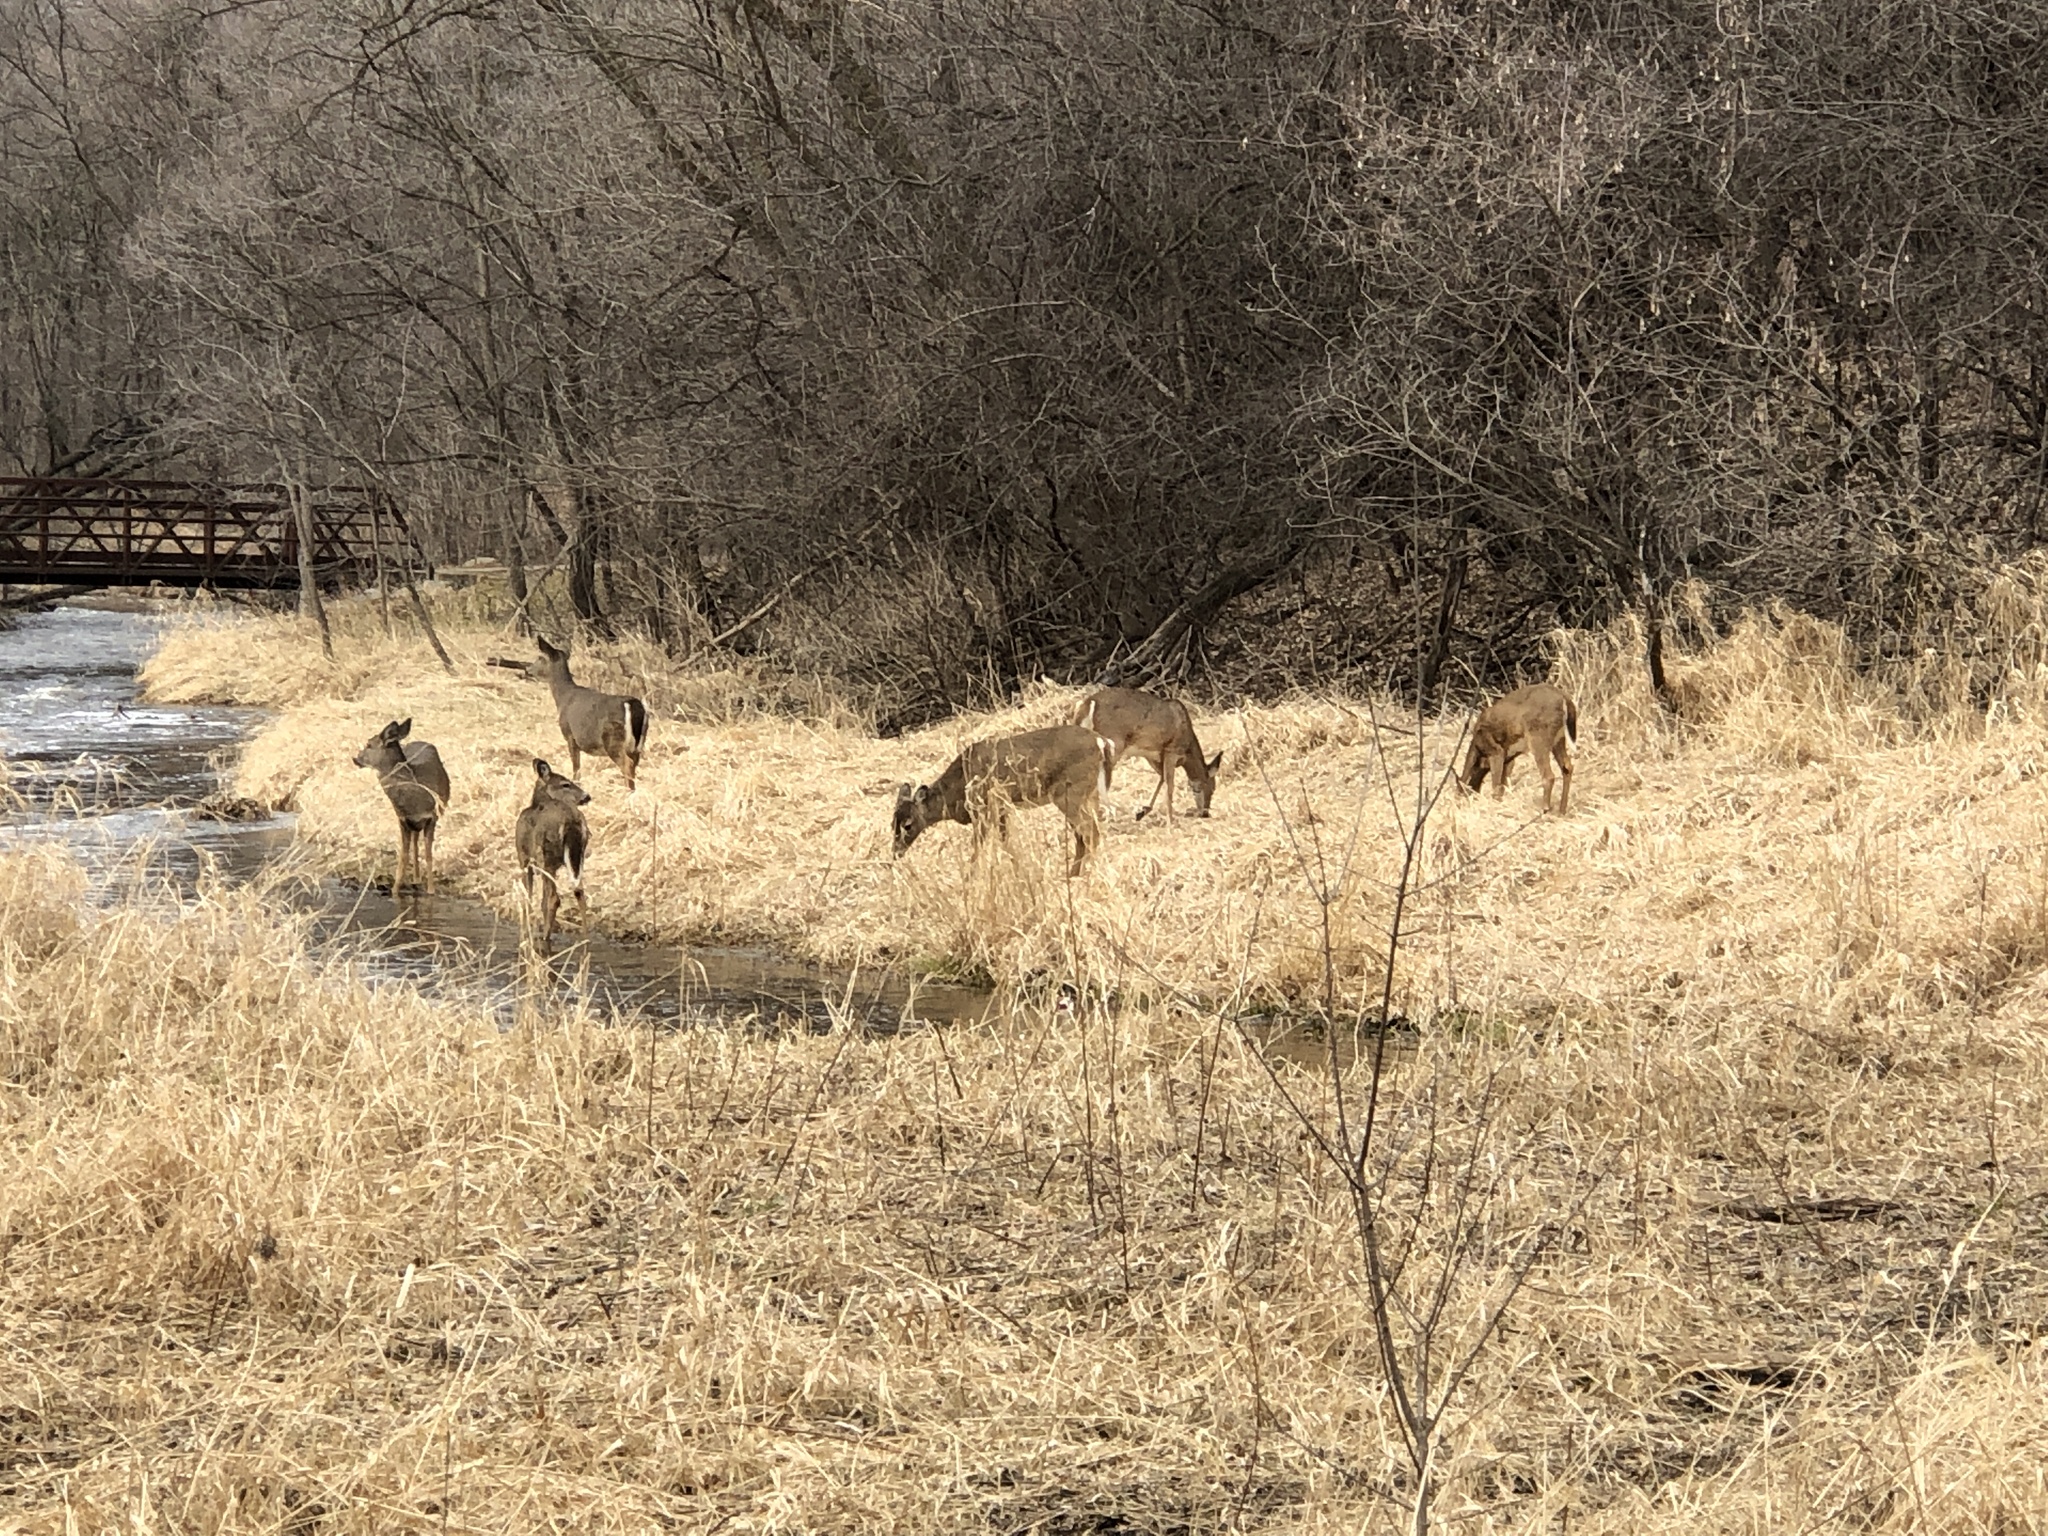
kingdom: Animalia
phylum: Chordata
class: Mammalia
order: Artiodactyla
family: Cervidae
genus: Odocoileus
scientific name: Odocoileus virginianus
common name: White-tailed deer
